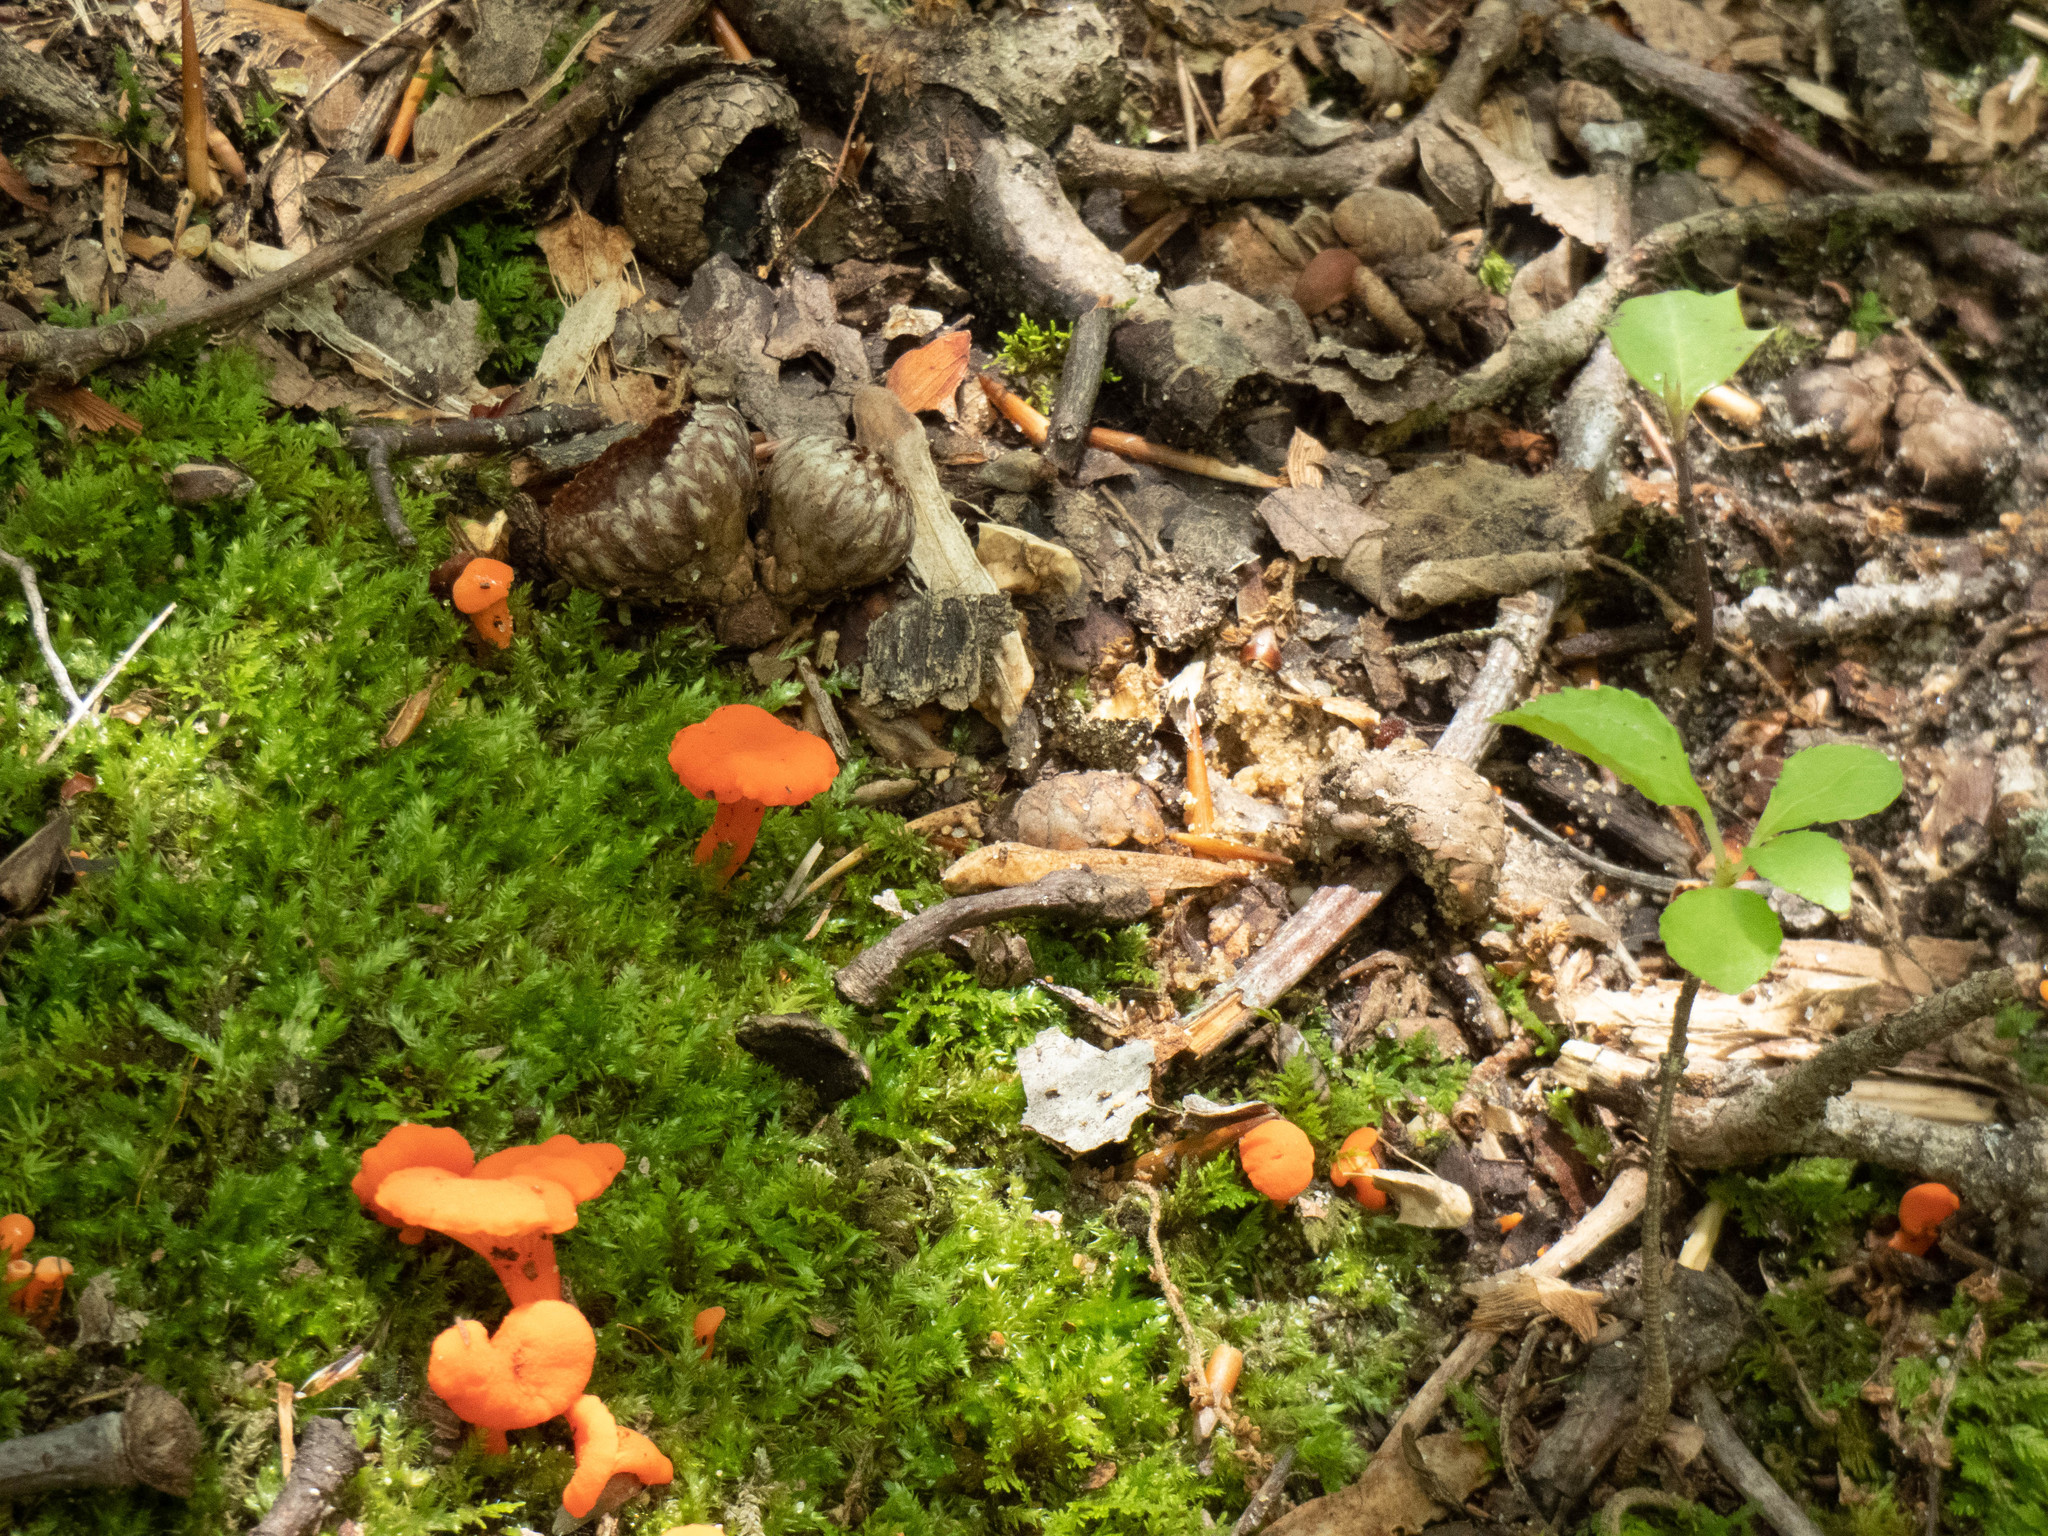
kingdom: Fungi
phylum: Basidiomycota
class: Agaricomycetes
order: Cantharellales
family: Hydnaceae
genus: Cantharellus
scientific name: Cantharellus cinnabarinus
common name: Cinnabar chanterelle
